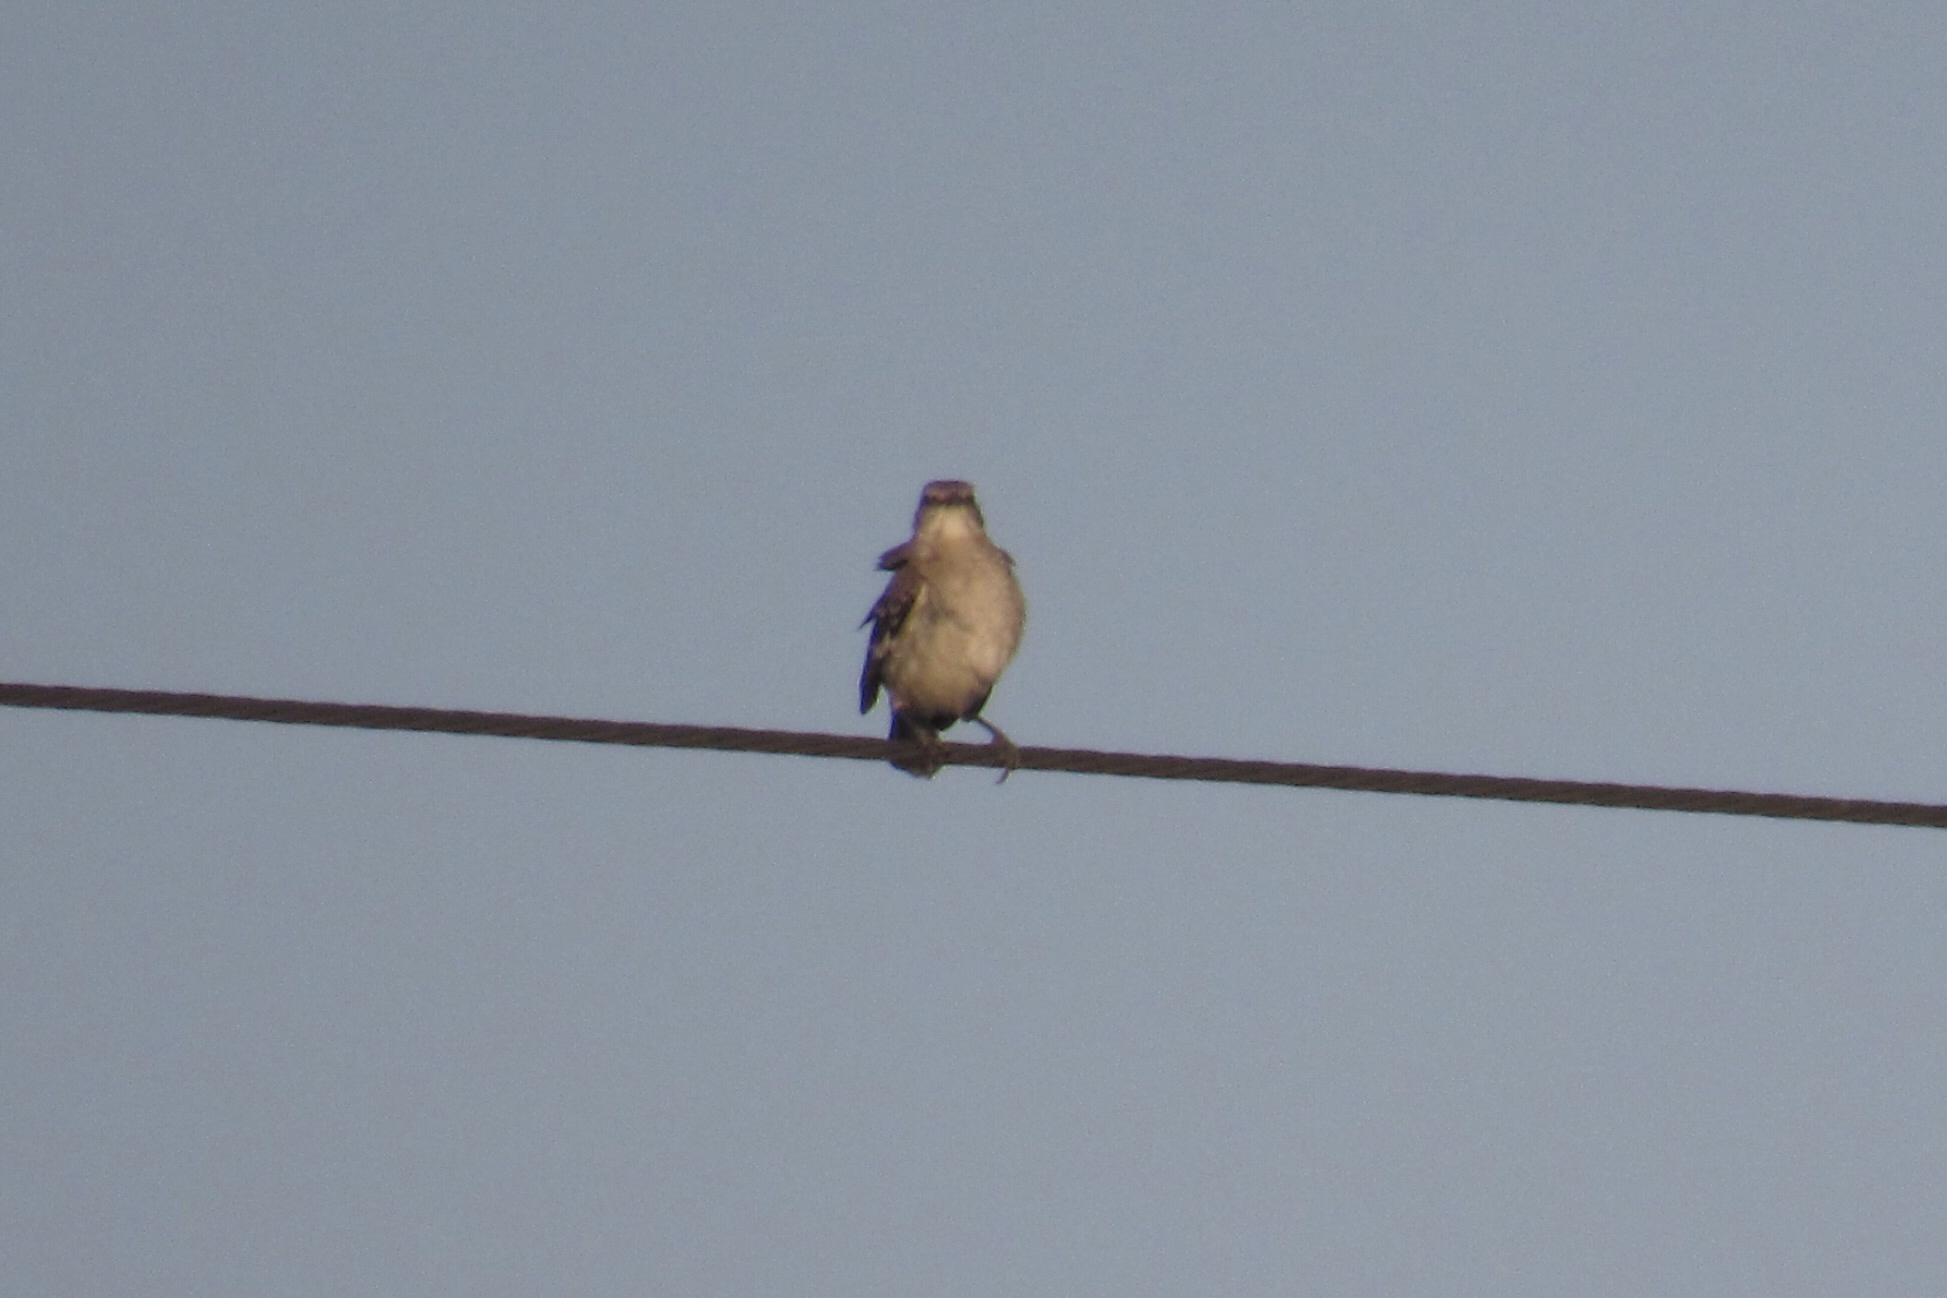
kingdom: Animalia
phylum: Chordata
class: Aves
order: Passeriformes
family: Mimidae
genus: Mimus
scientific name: Mimus polyglottos
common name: Northern mockingbird
